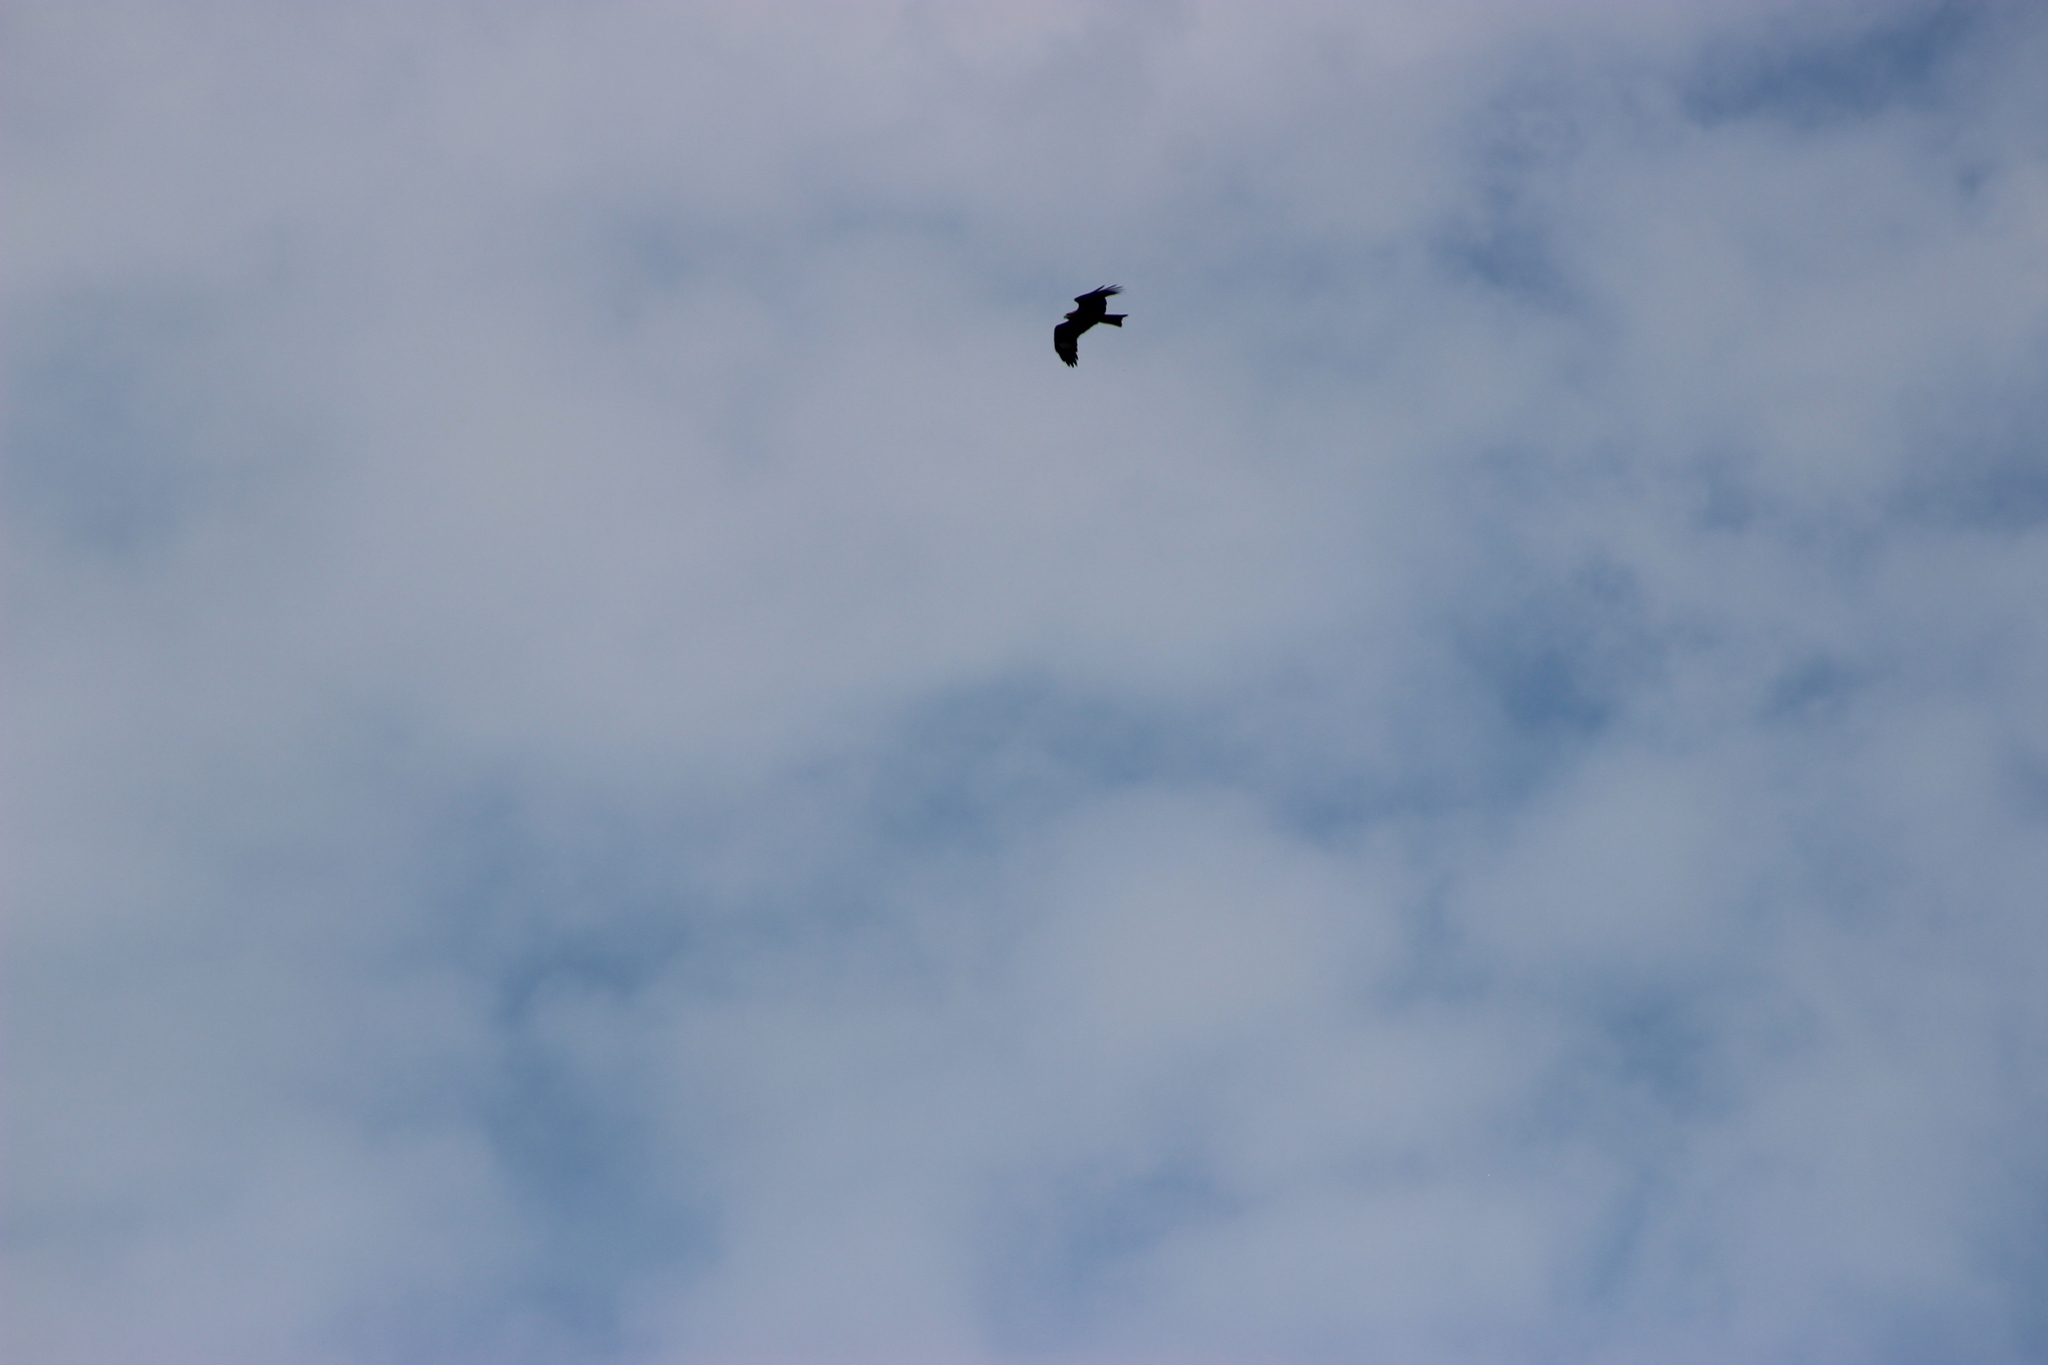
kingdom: Animalia
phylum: Chordata
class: Aves
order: Accipitriformes
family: Accipitridae
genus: Milvus
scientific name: Milvus migrans
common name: Black kite
